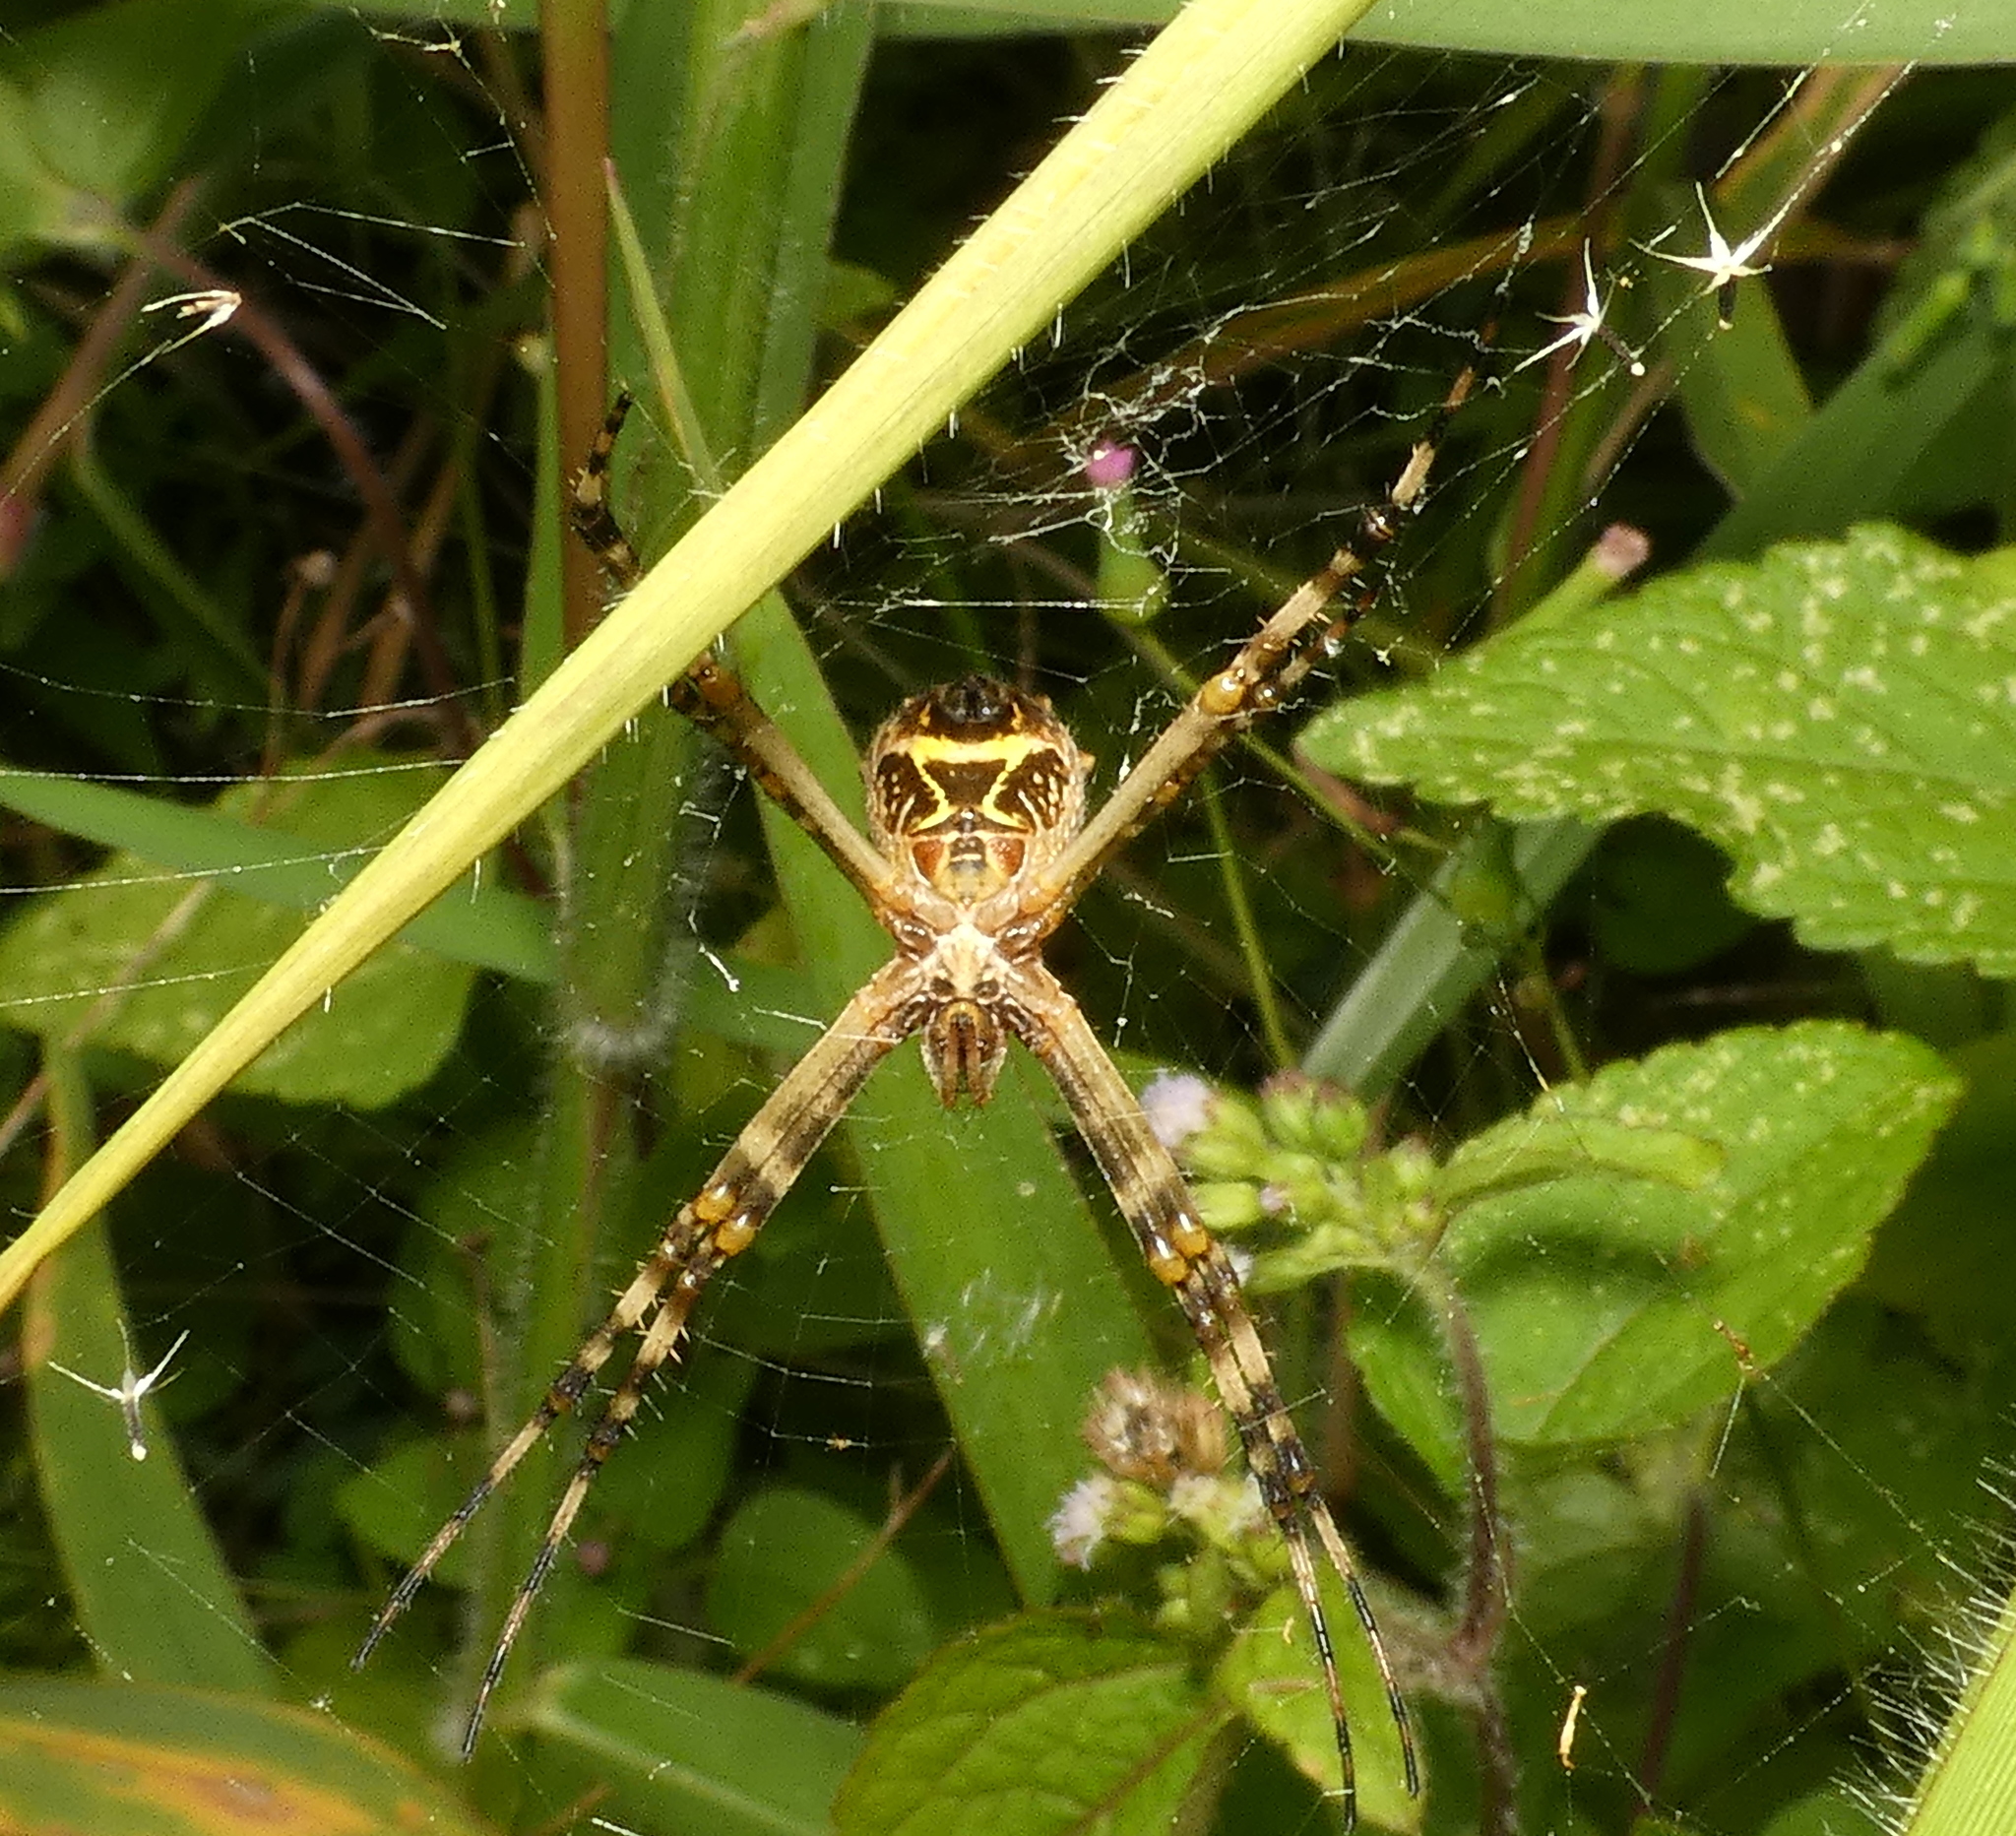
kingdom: Animalia
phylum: Arthropoda
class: Arachnida
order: Araneae
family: Araneidae
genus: Argiope
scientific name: Argiope argentata
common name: Orb weavers
